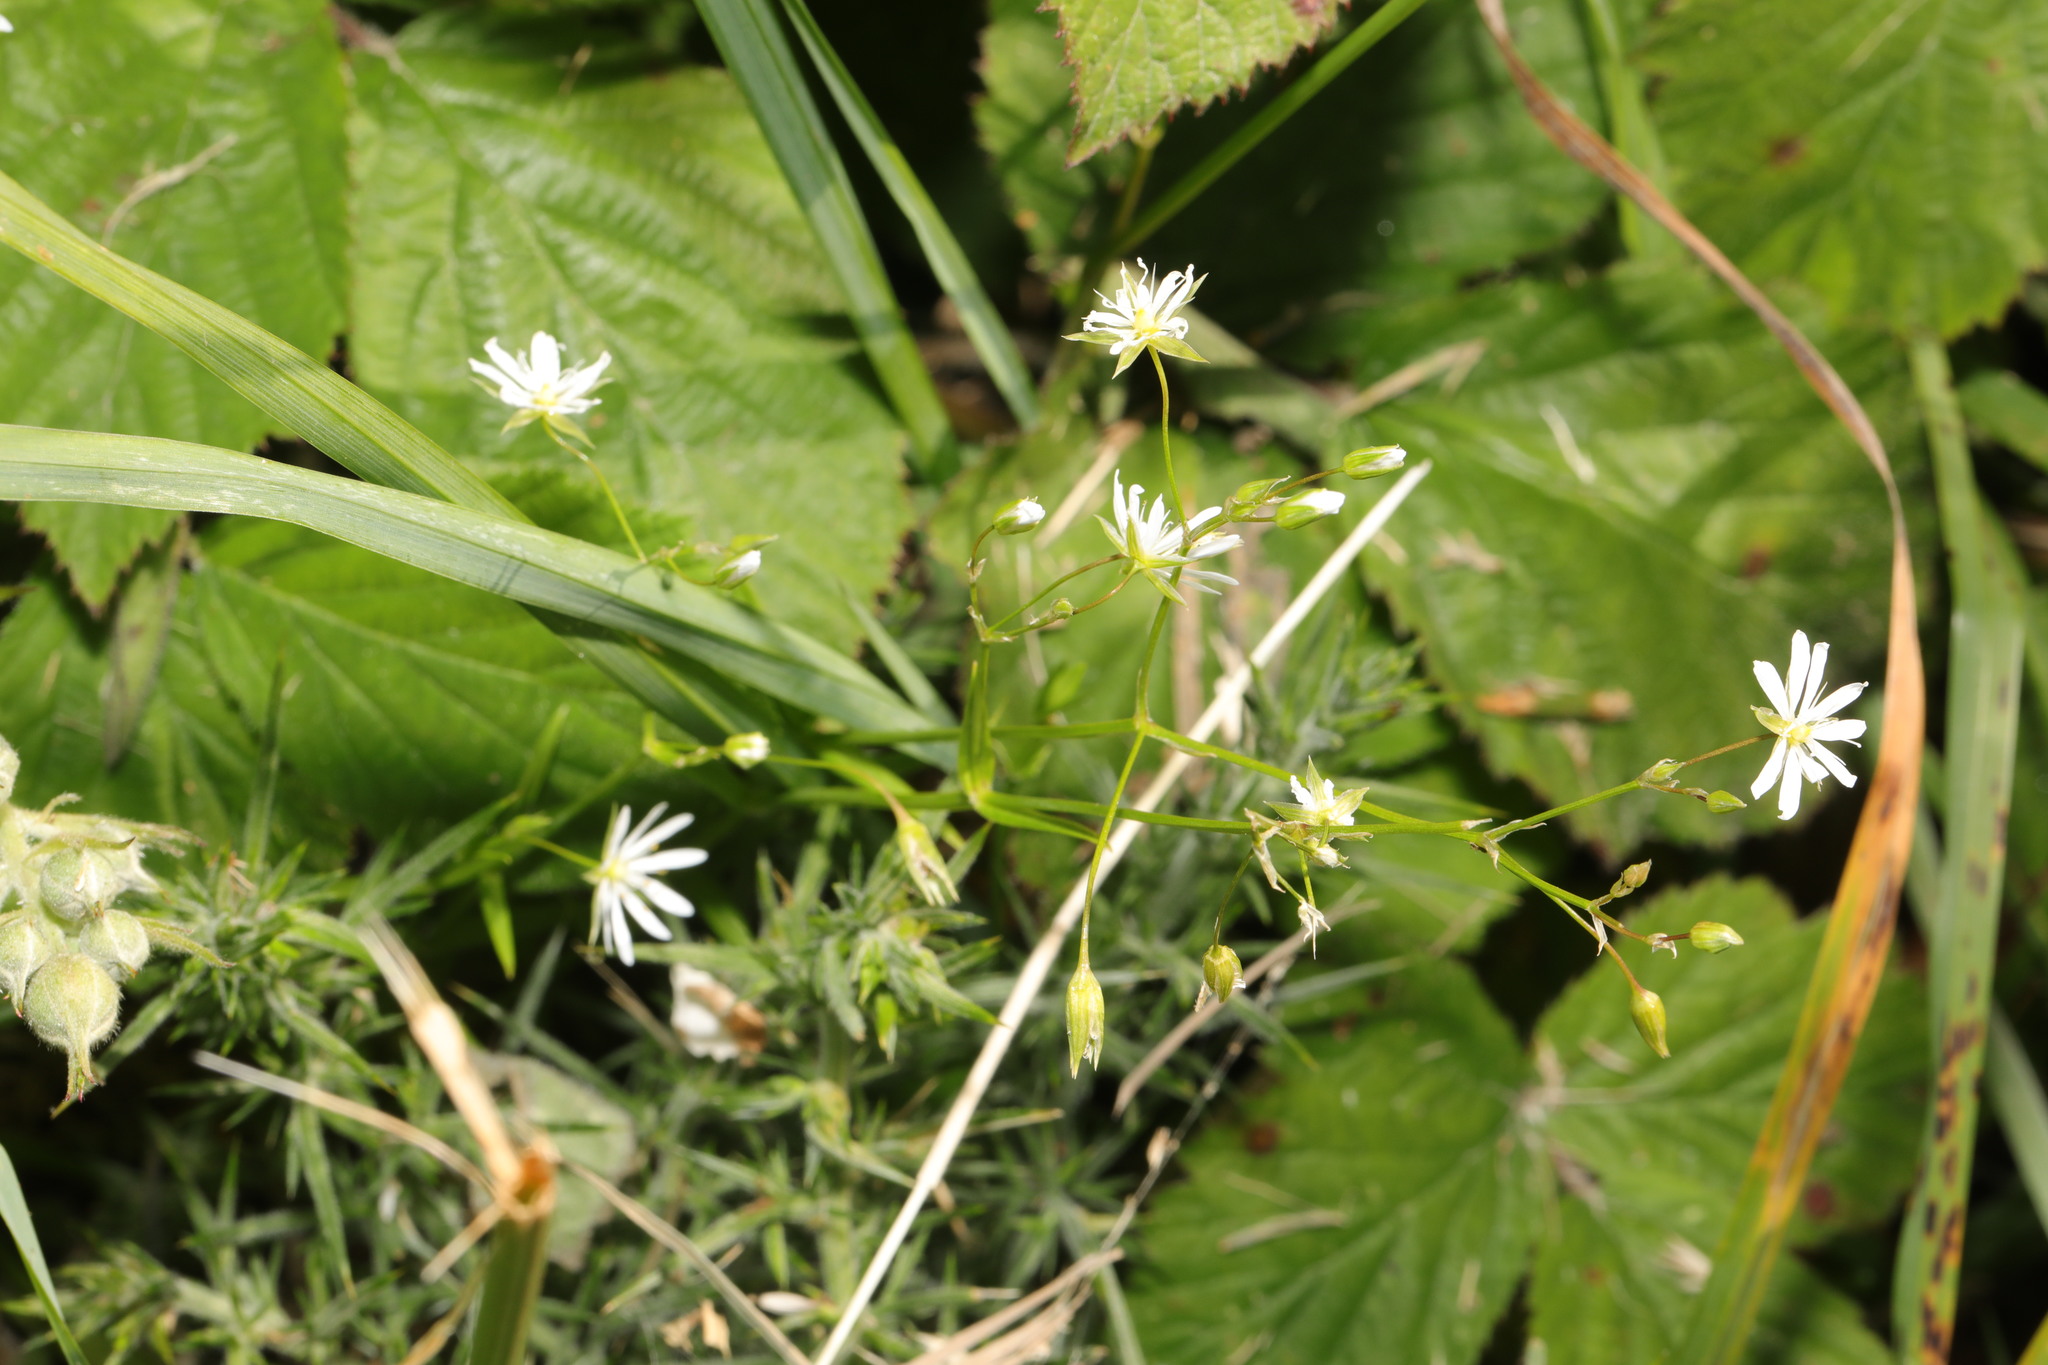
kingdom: Plantae
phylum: Tracheophyta
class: Magnoliopsida
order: Caryophyllales
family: Caryophyllaceae
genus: Stellaria
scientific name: Stellaria graminea
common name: Grass-like starwort
